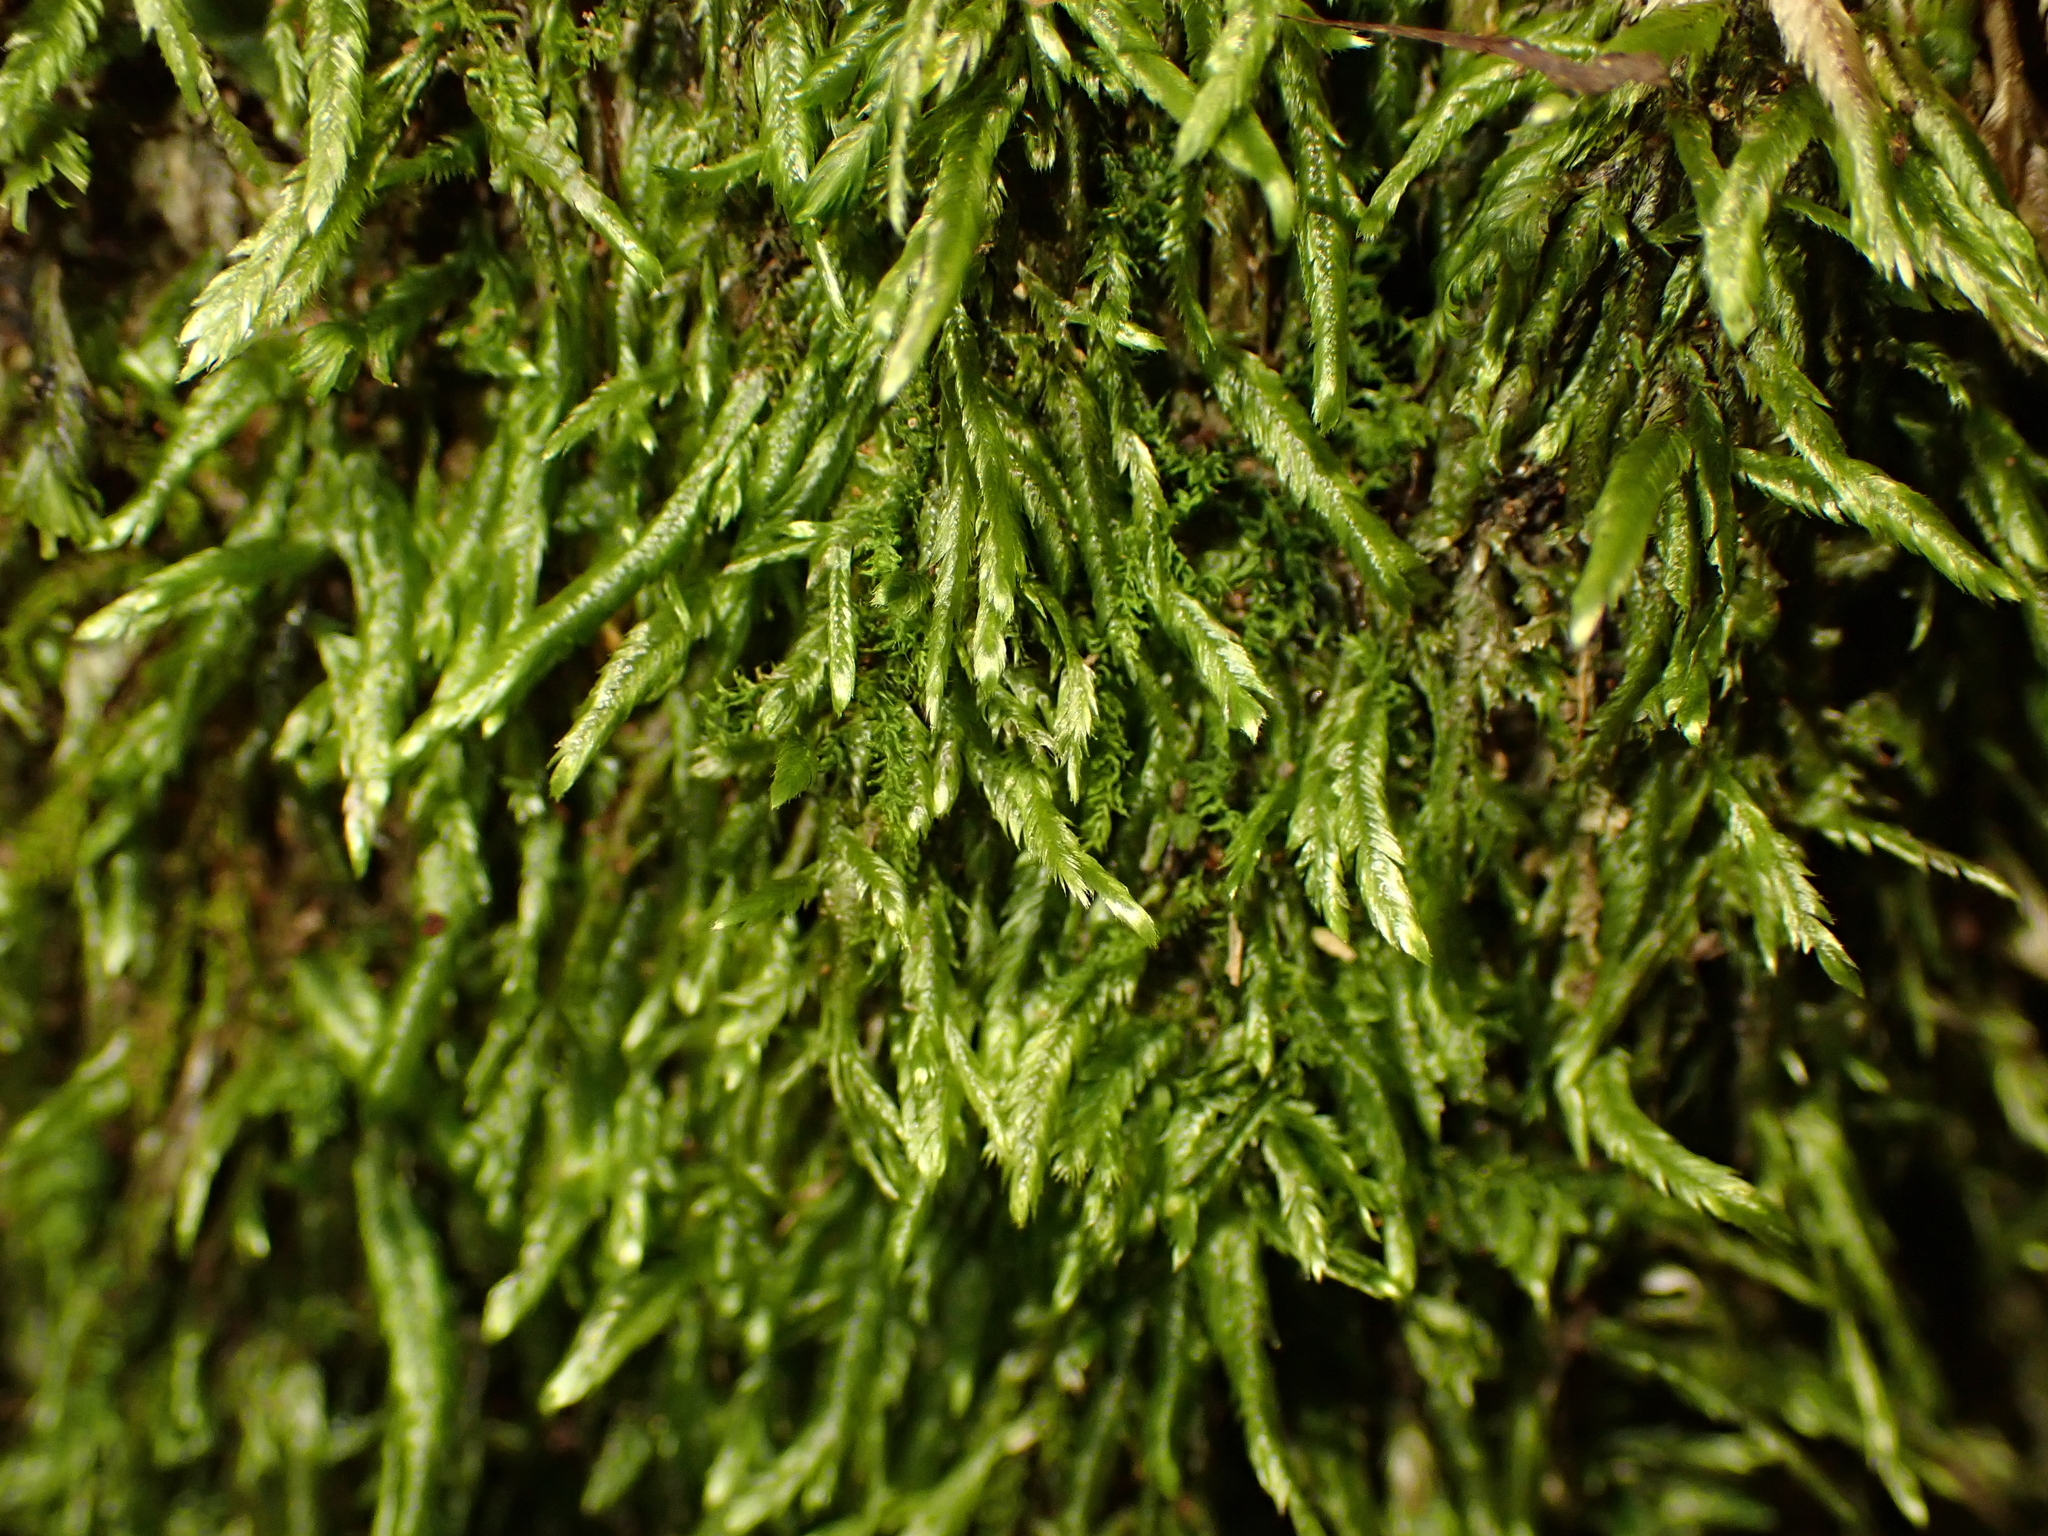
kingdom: Plantae
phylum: Bryophyta
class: Bryopsida
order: Hypnales
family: Catagoniaceae
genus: Catagonium
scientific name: Catagonium nitens
